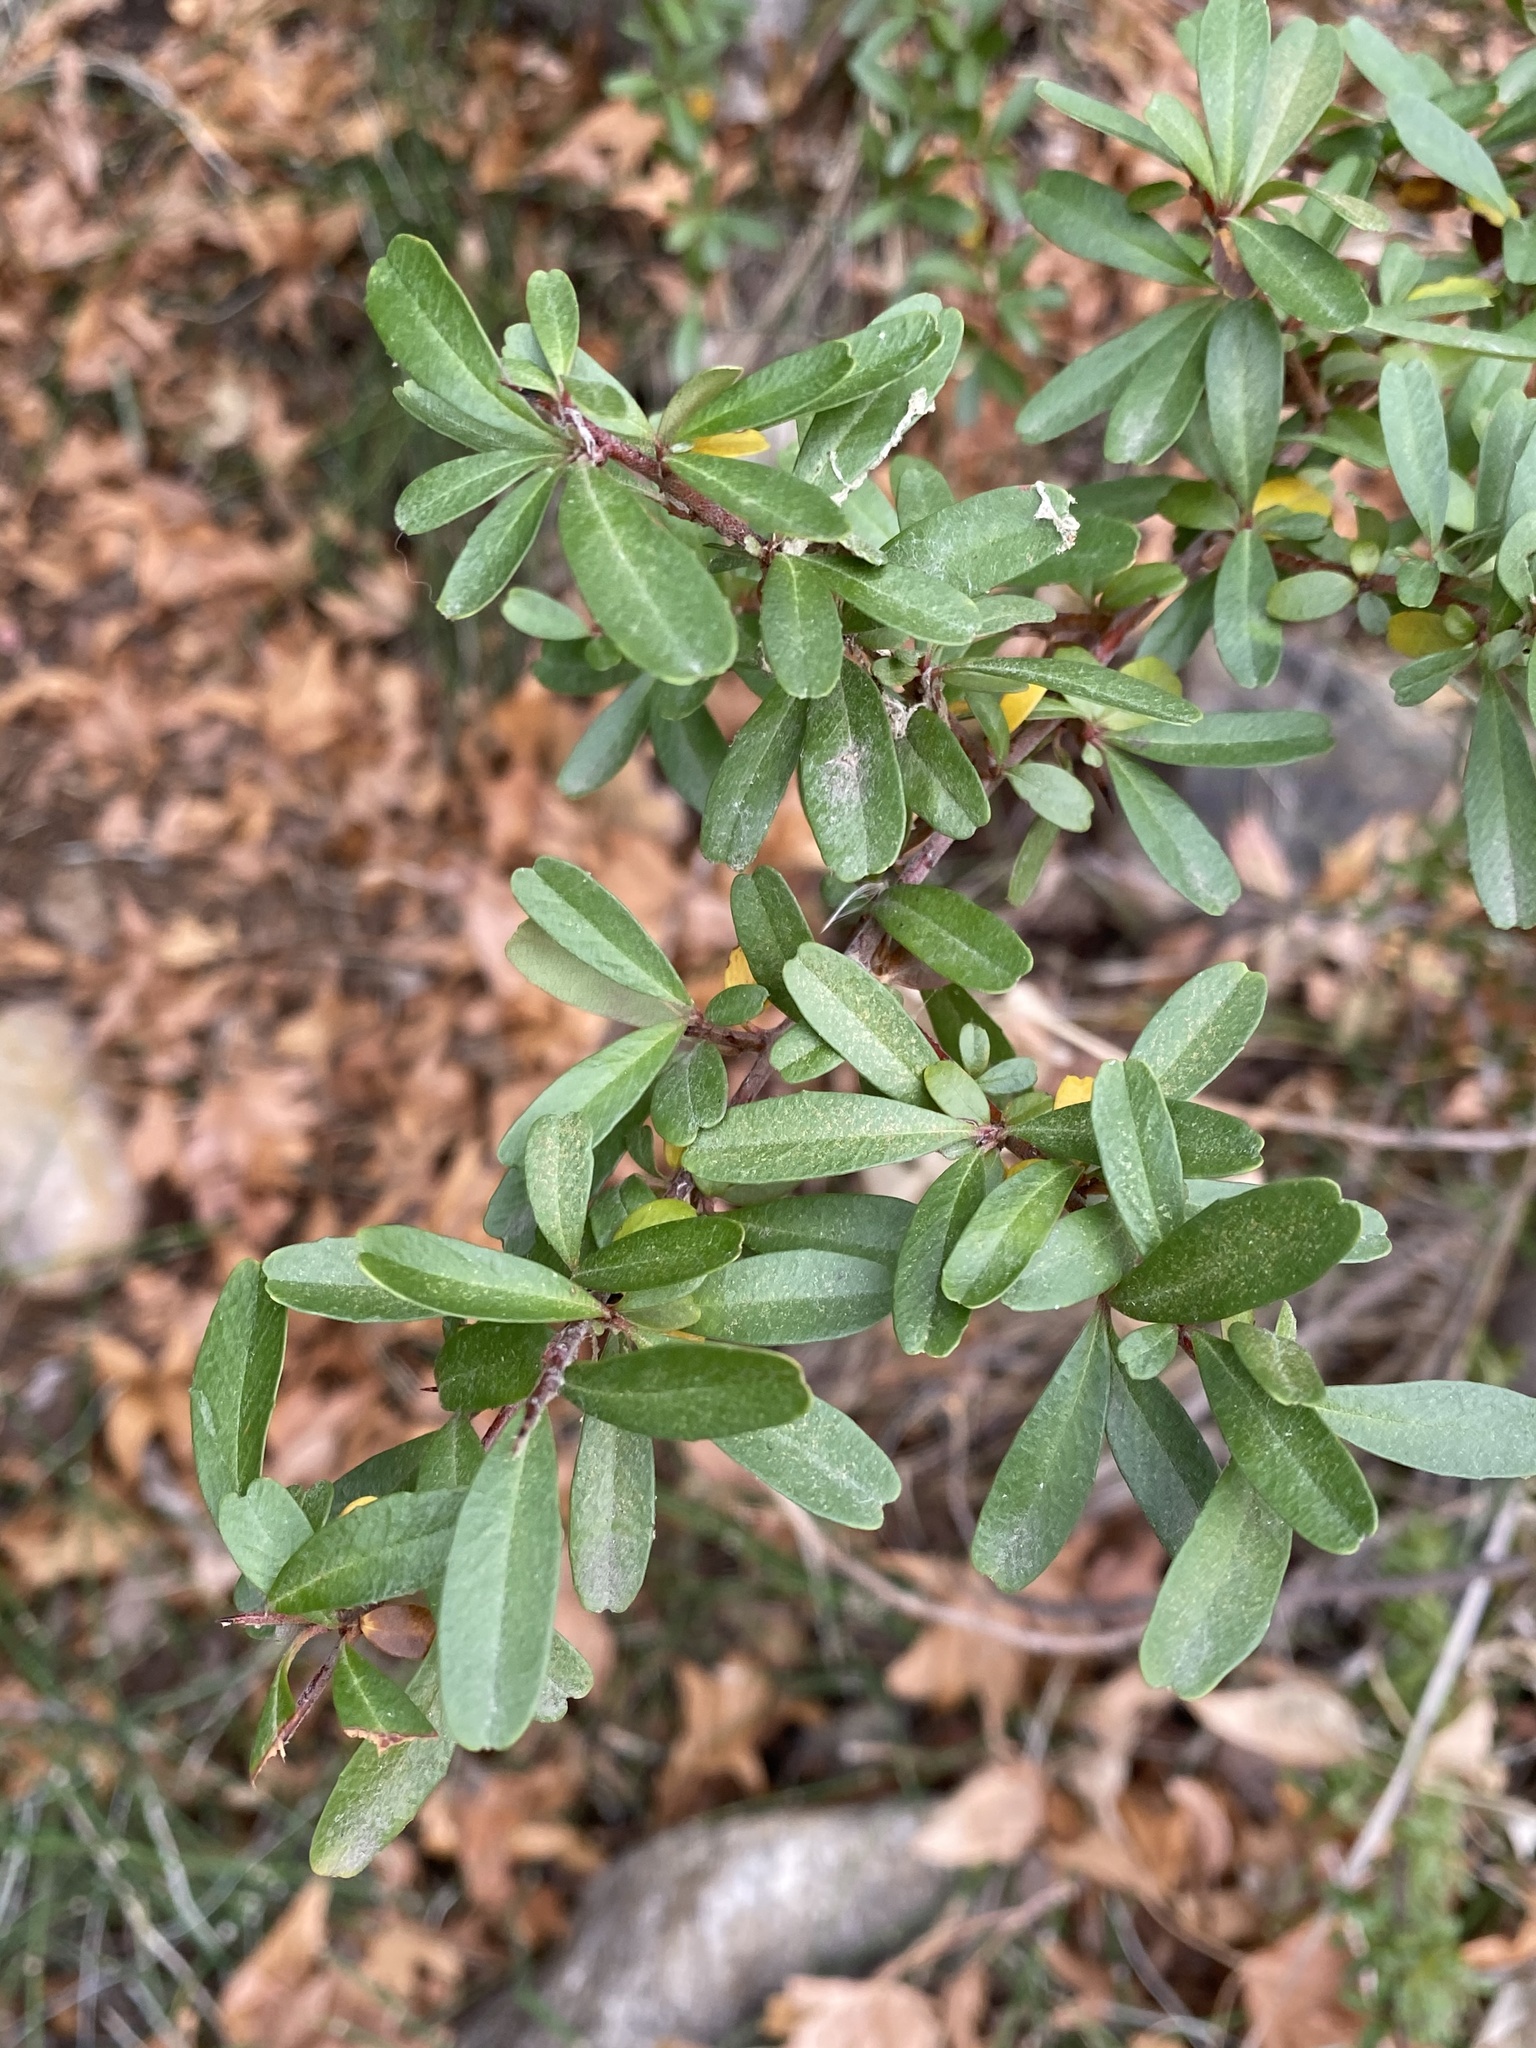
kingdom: Plantae
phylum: Tracheophyta
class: Magnoliopsida
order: Rosales
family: Rosaceae
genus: Pyracantha
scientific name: Pyracantha koidzumii
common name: Formosa firethorn
